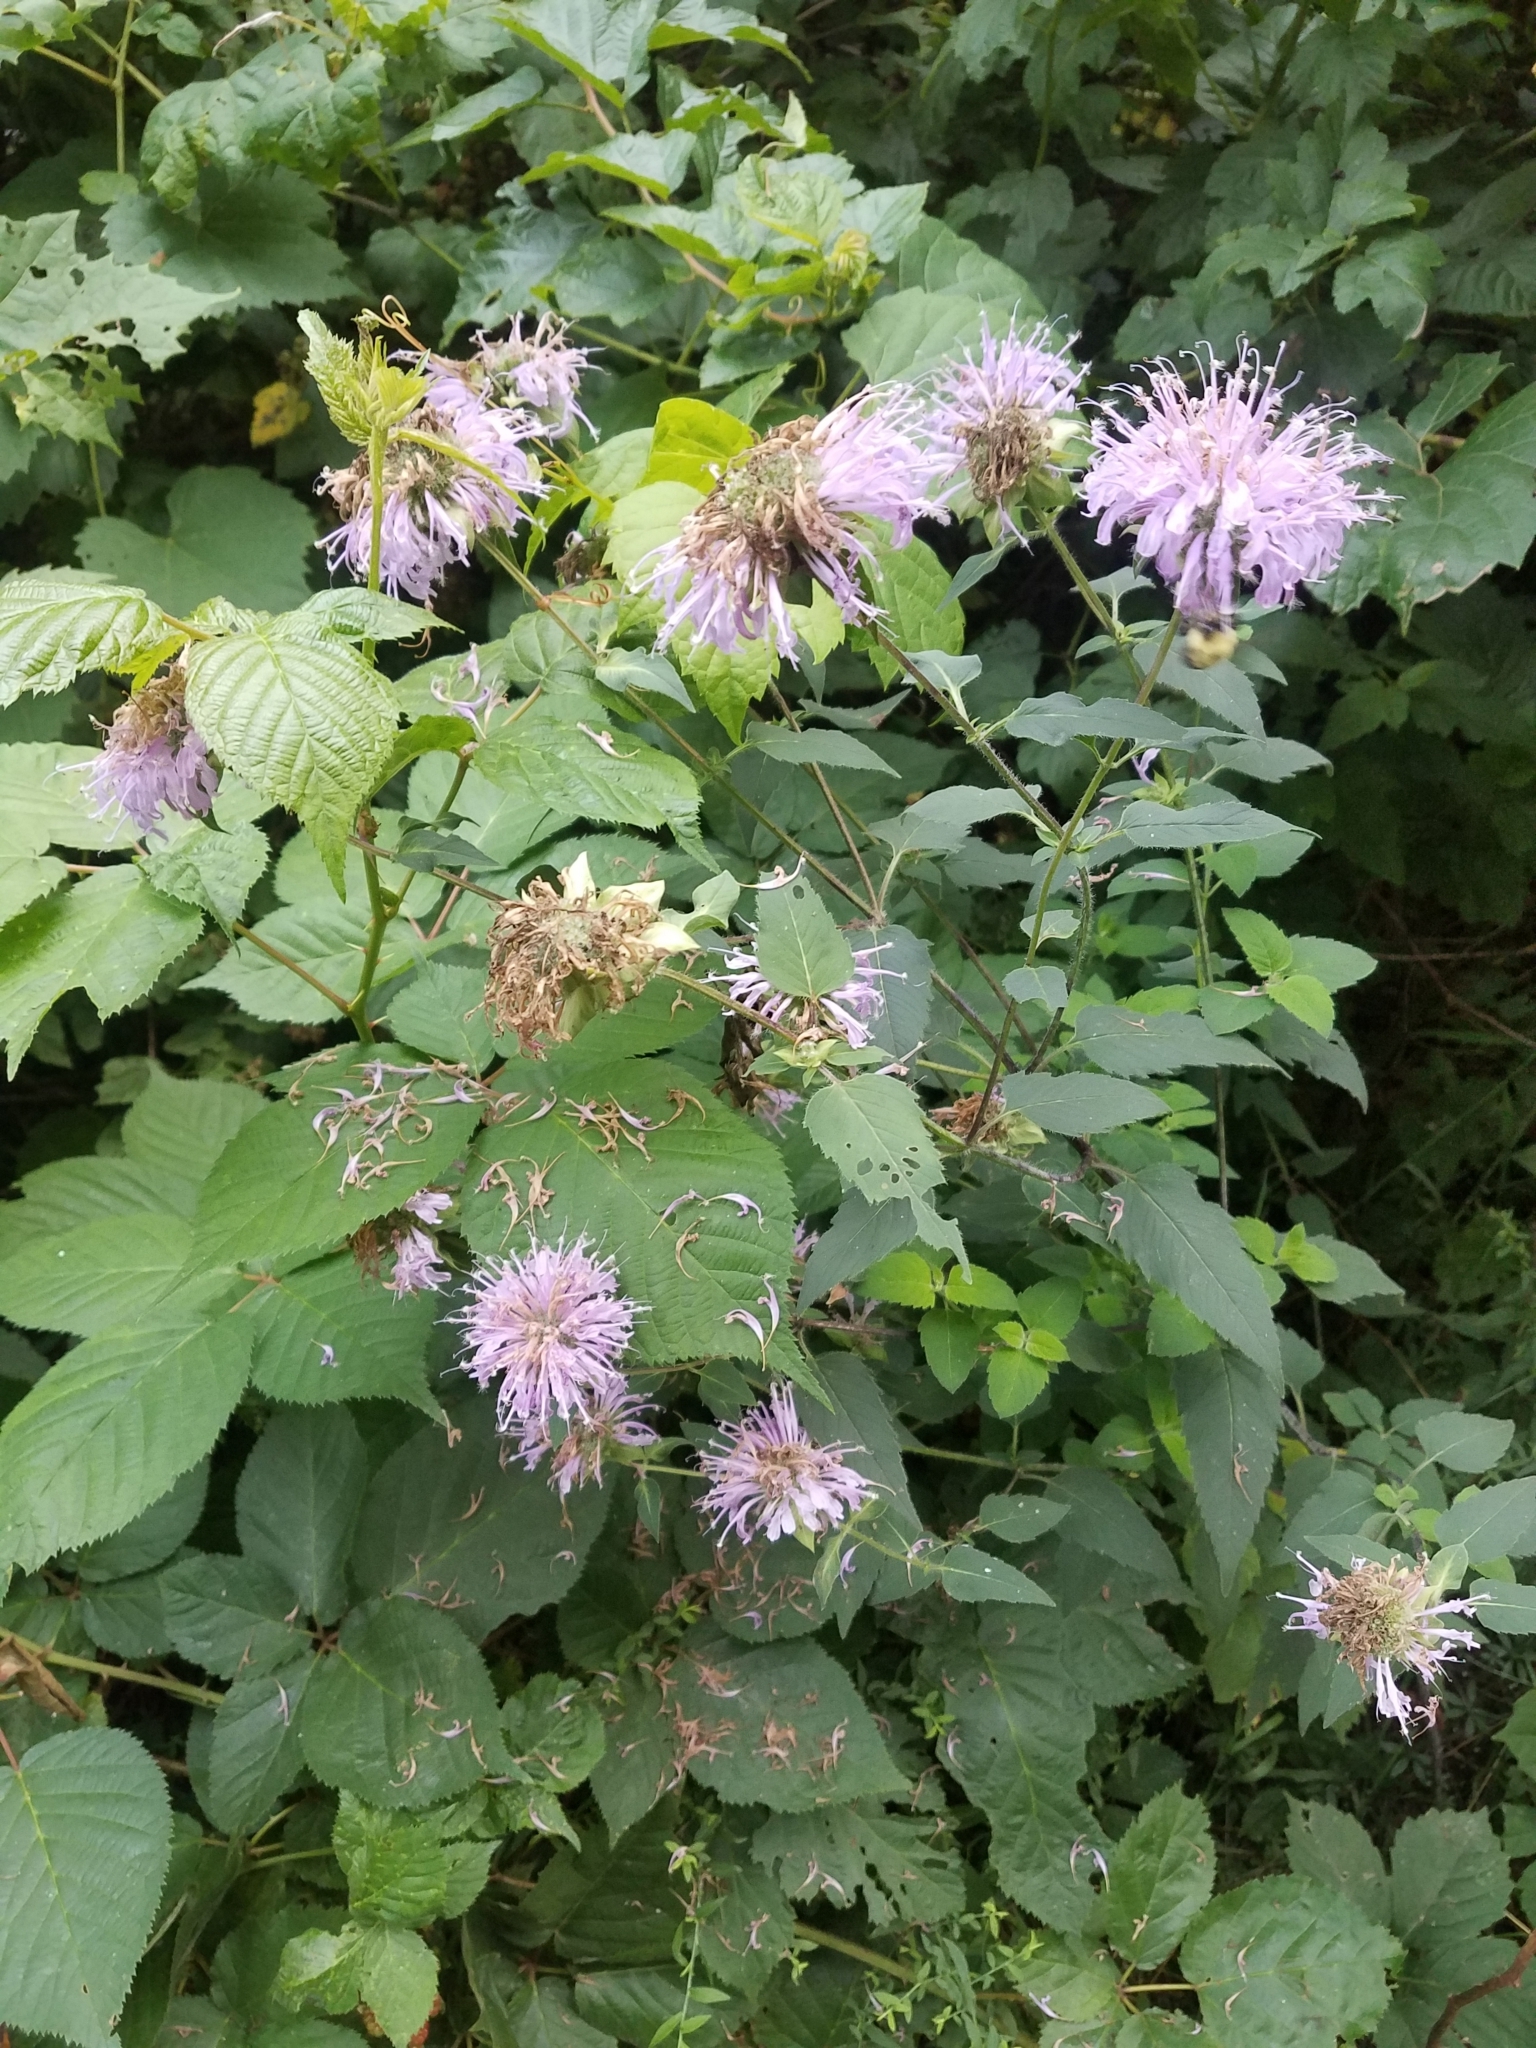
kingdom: Plantae
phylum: Tracheophyta
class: Magnoliopsida
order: Lamiales
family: Lamiaceae
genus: Monarda
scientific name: Monarda fistulosa
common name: Purple beebalm
